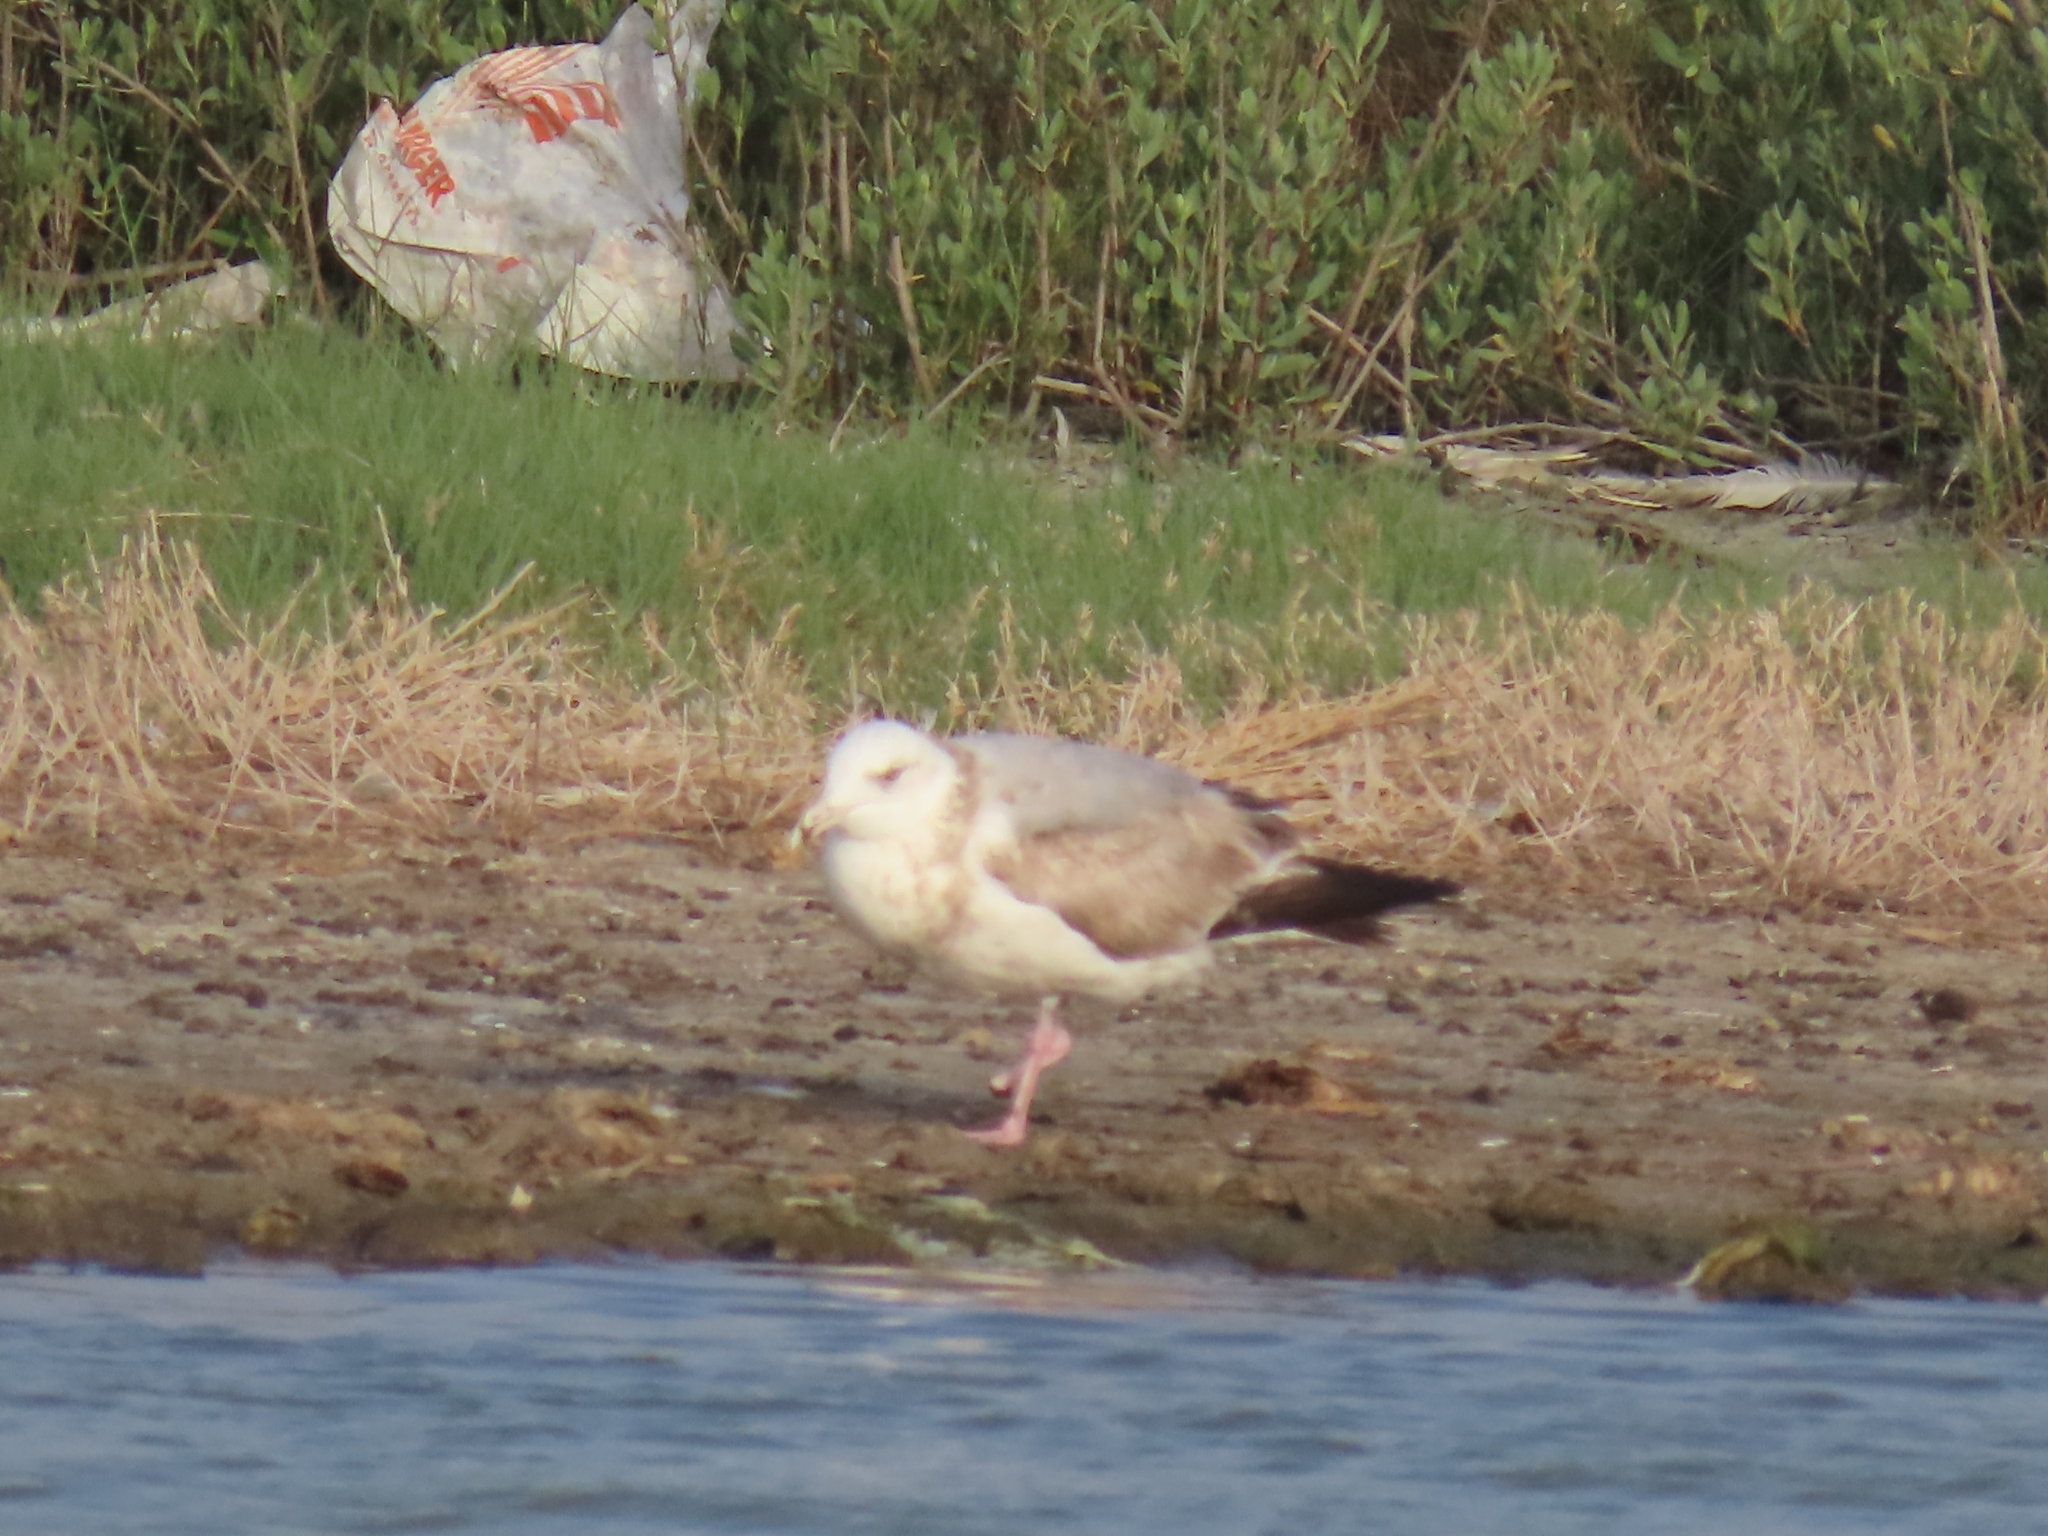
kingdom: Animalia
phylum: Chordata
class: Aves
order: Charadriiformes
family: Laridae
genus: Larus
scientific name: Larus argentatus
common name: Herring gull
